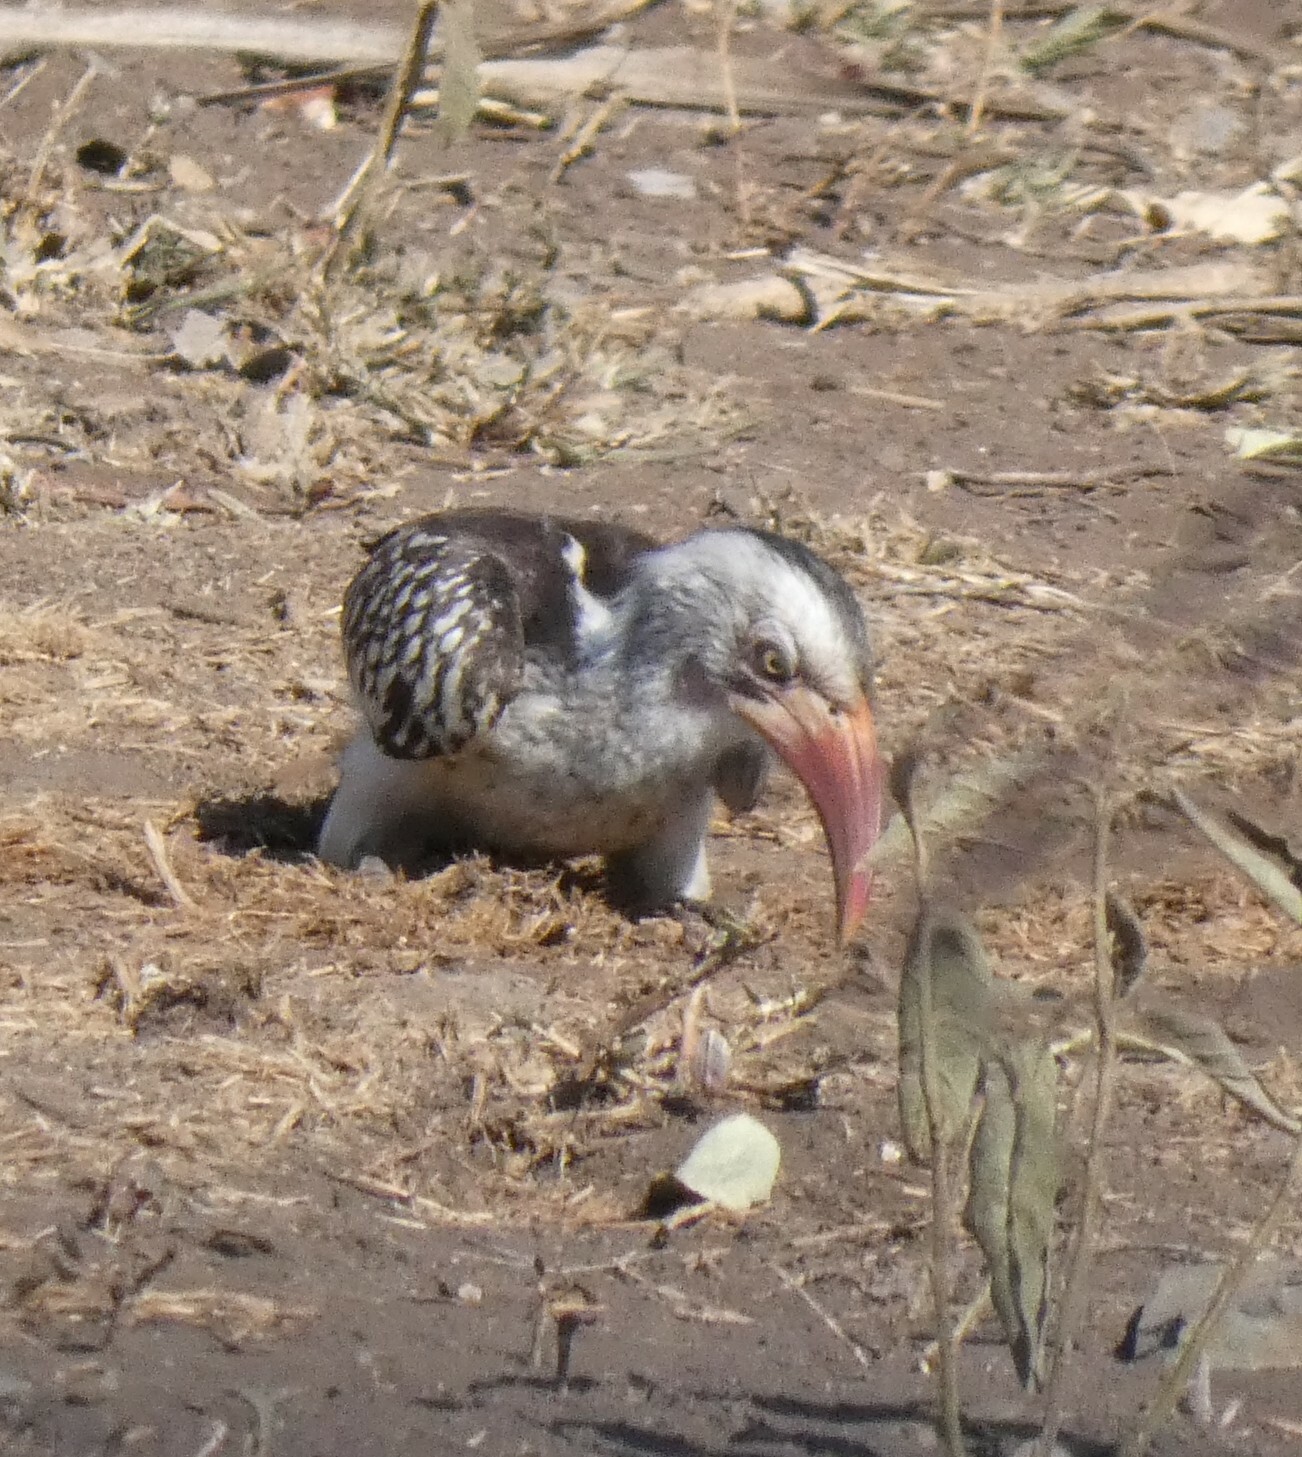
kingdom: Animalia
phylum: Chordata
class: Aves
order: Bucerotiformes
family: Bucerotidae
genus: Tockus
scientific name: Tockus rufirostris
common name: Southern red-billed hornbill
